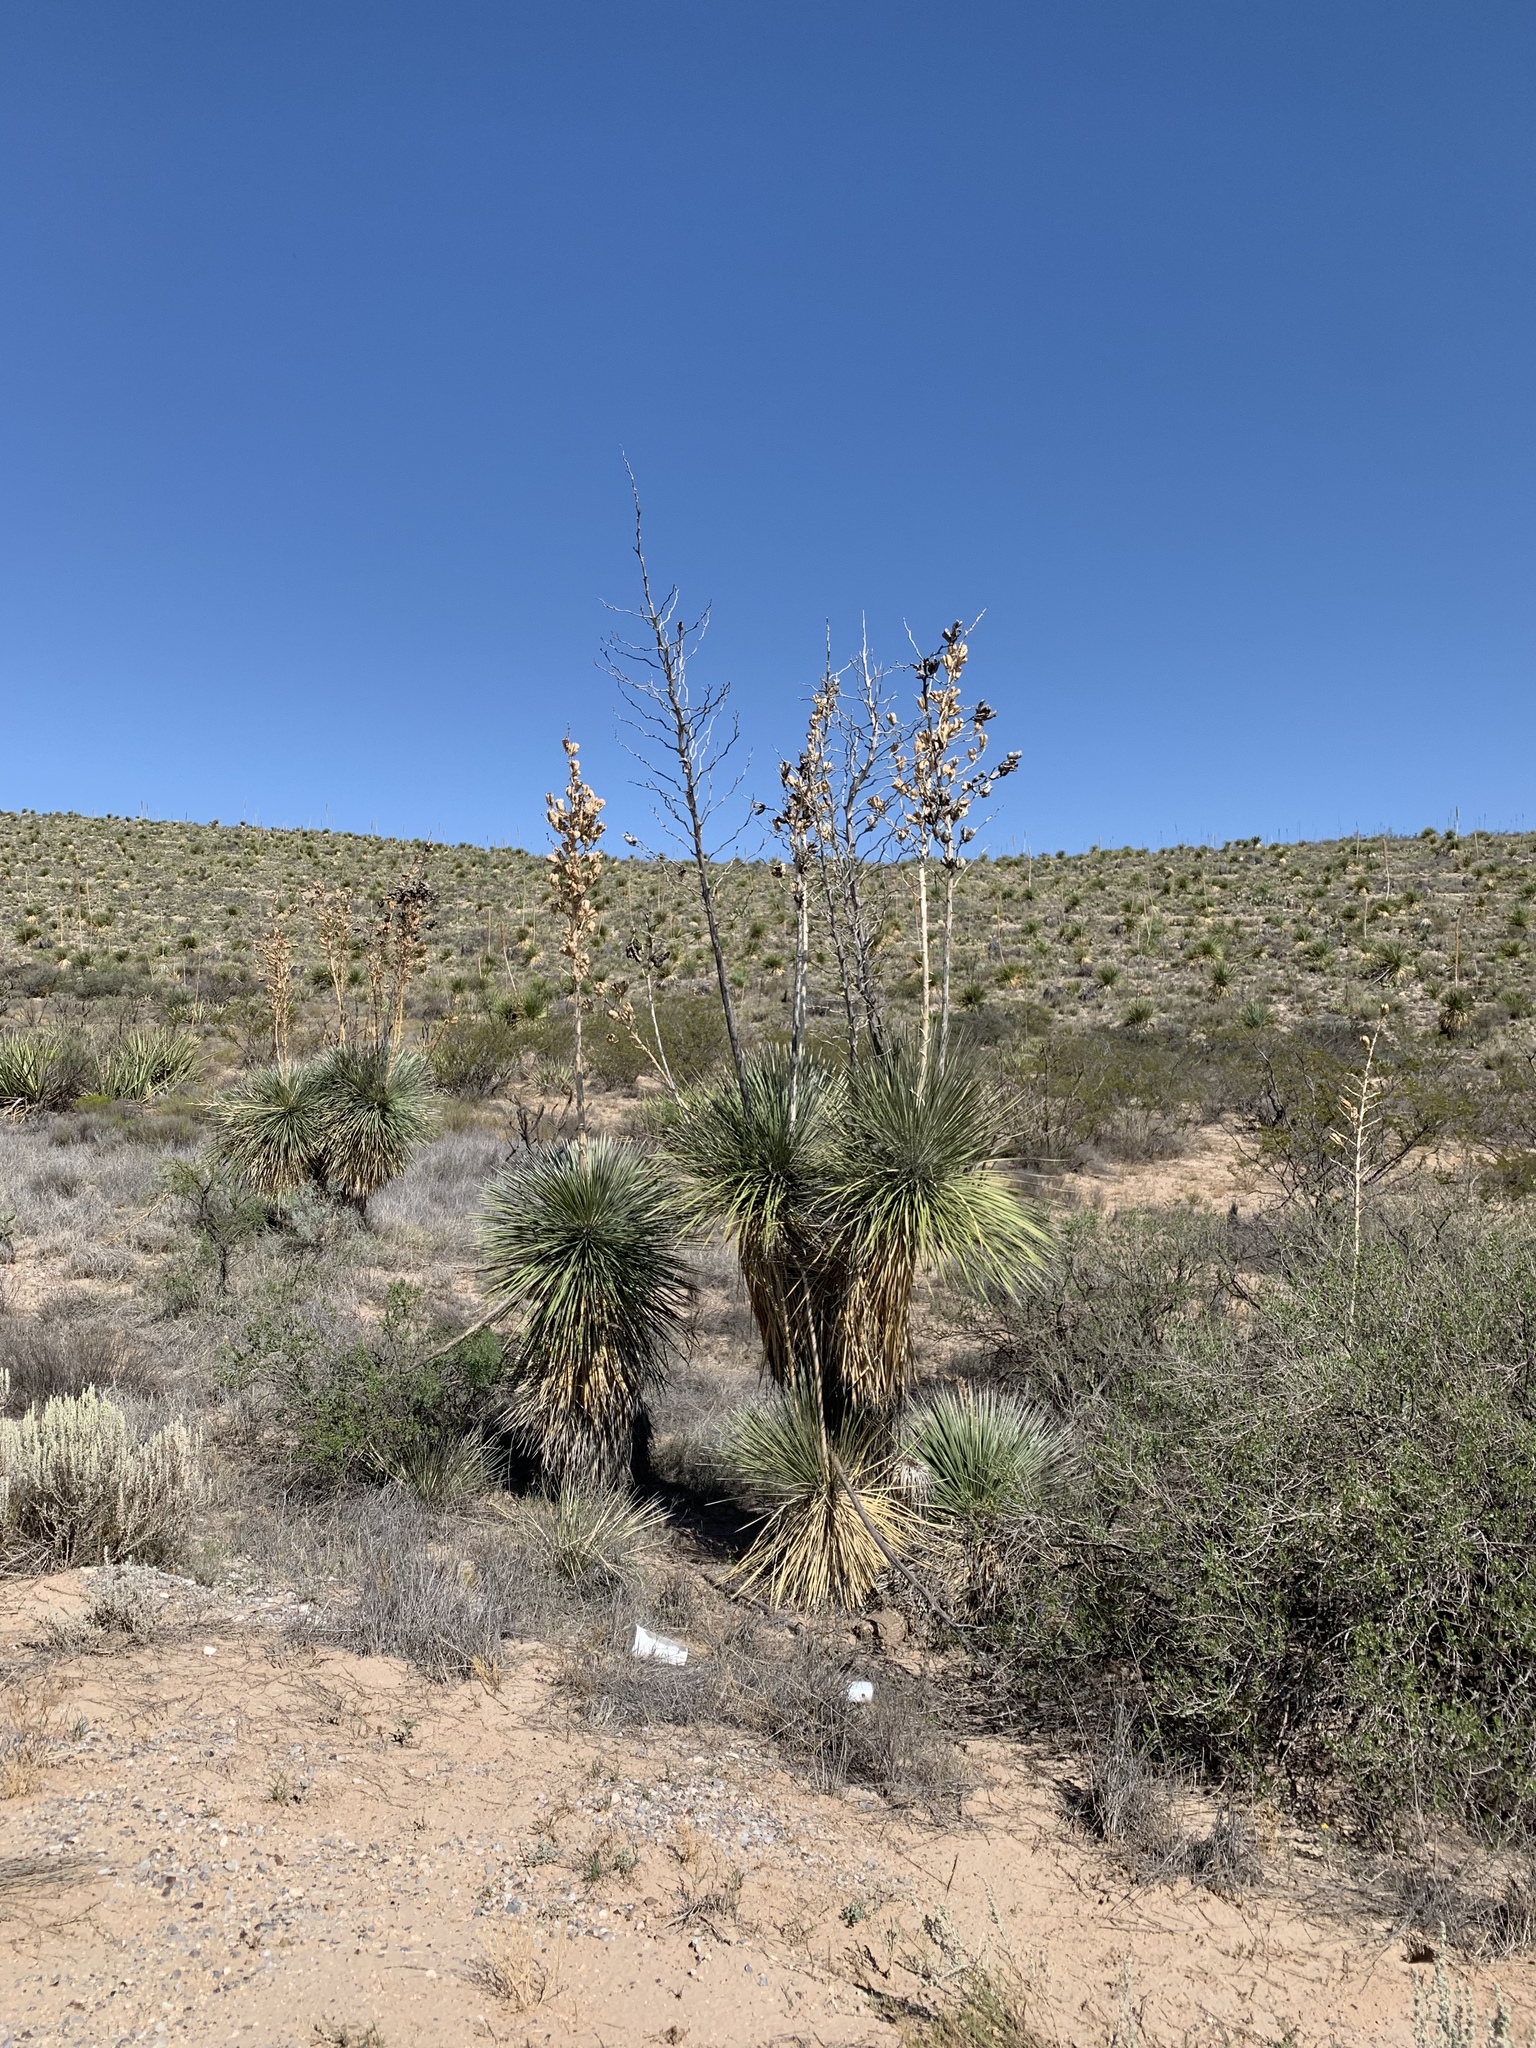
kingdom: Plantae
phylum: Tracheophyta
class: Liliopsida
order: Asparagales
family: Asparagaceae
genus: Yucca
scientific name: Yucca elata
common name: Palmella
